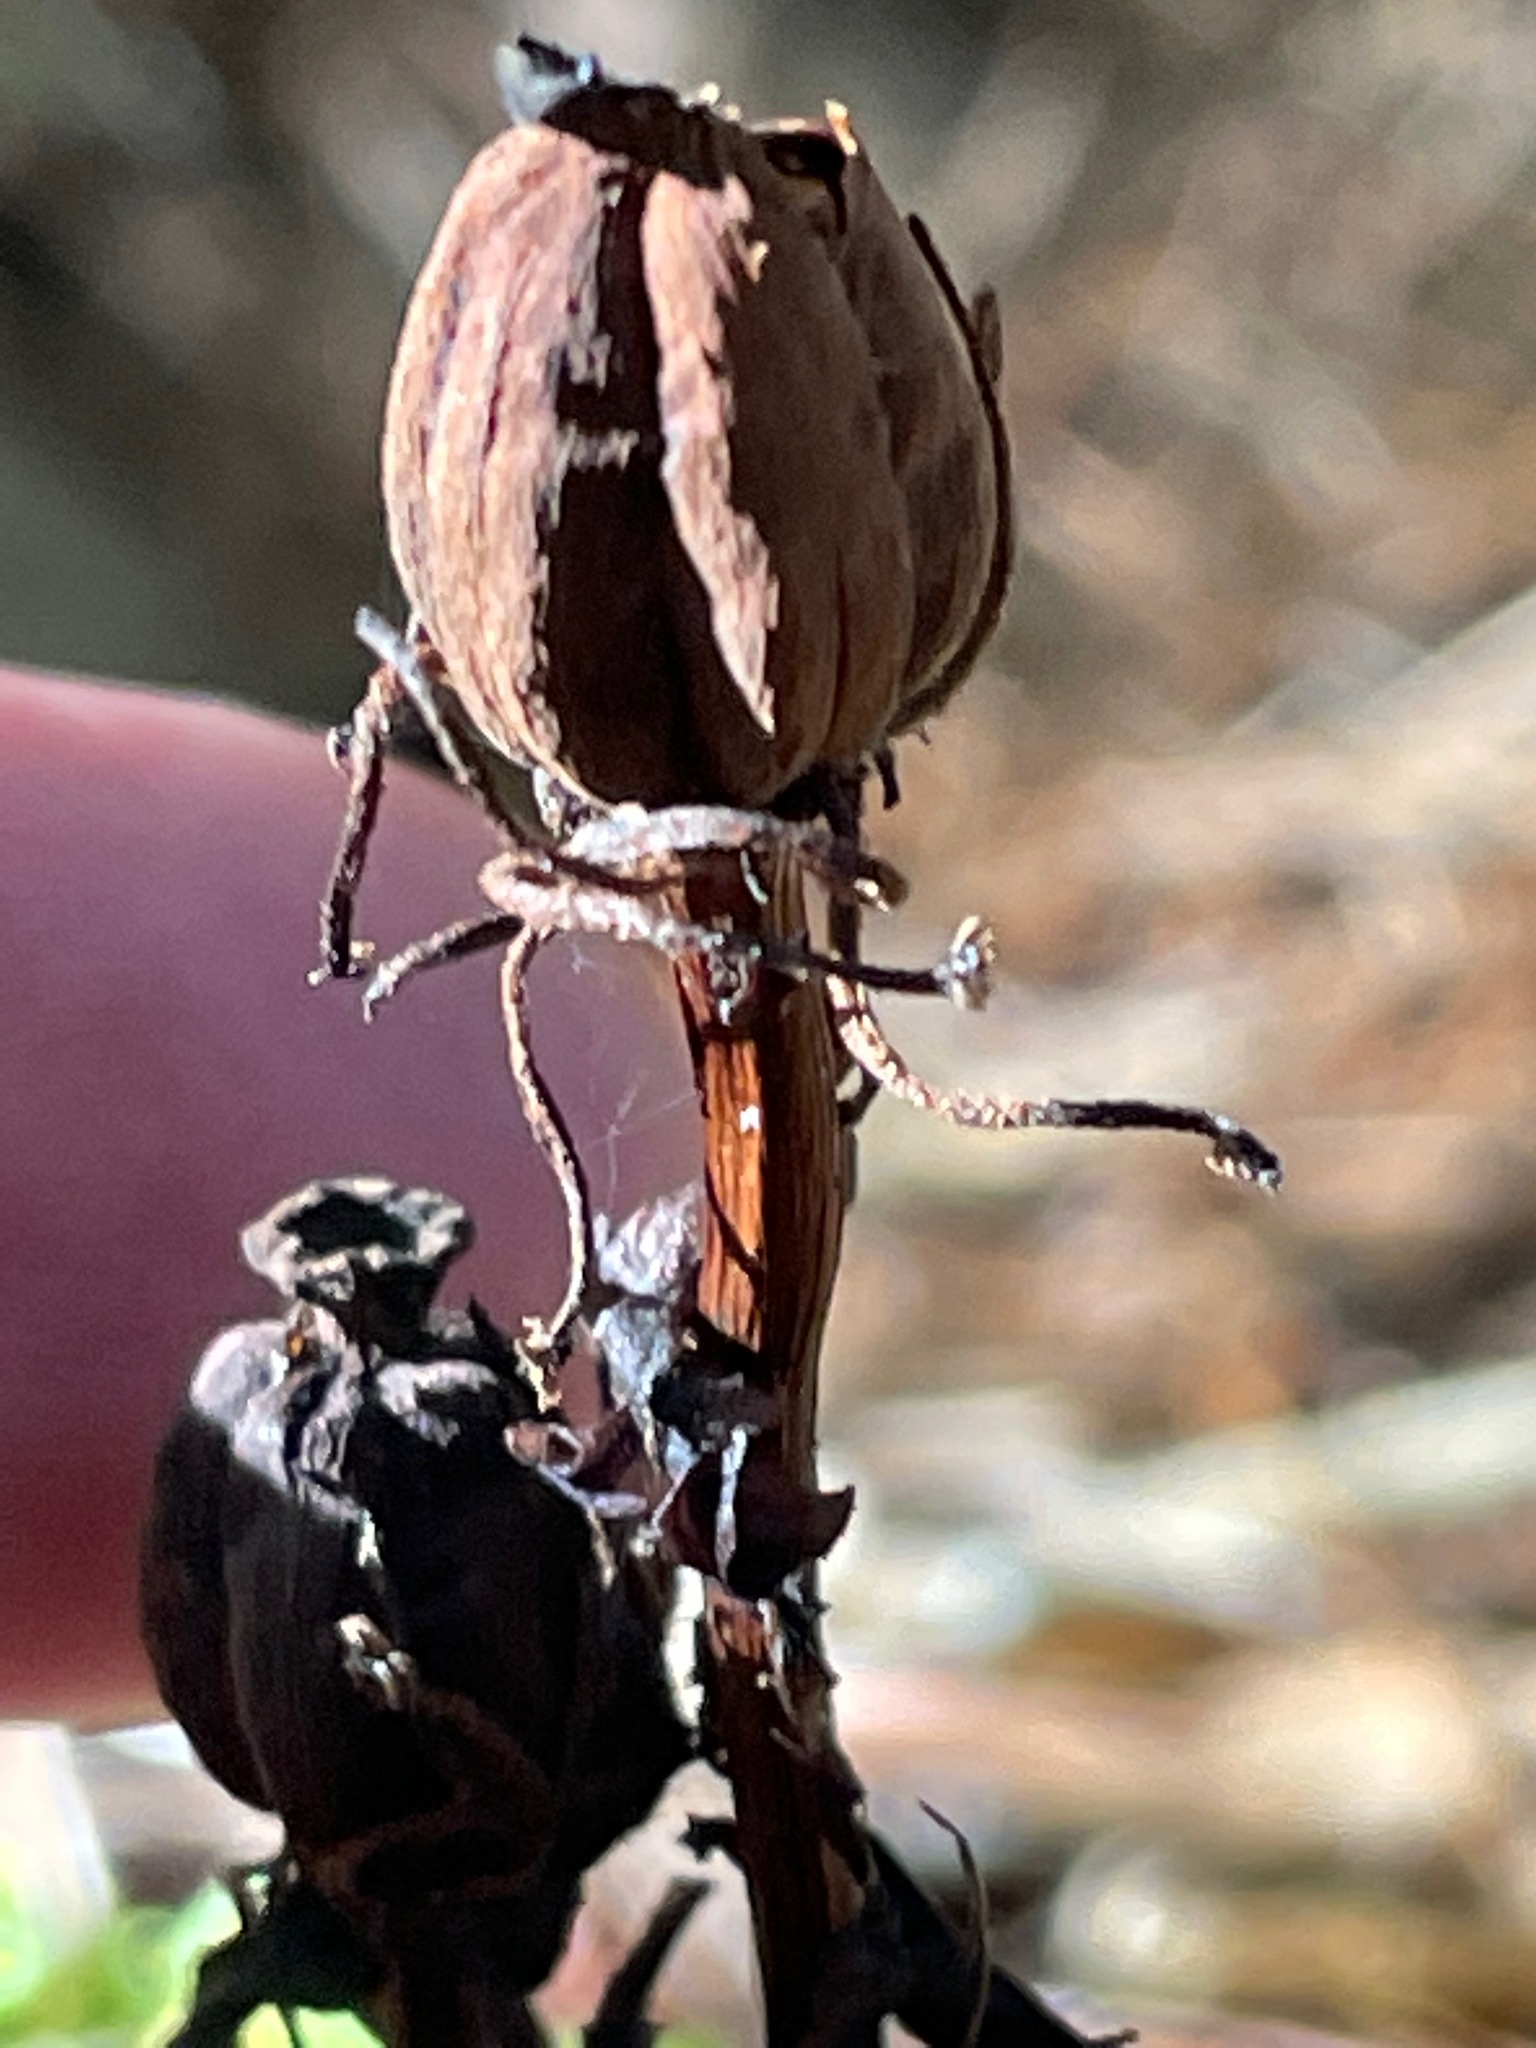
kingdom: Plantae
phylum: Tracheophyta
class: Magnoliopsida
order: Ericales
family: Ericaceae
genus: Monotropa
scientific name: Monotropa uniflora
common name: Convulsion root
